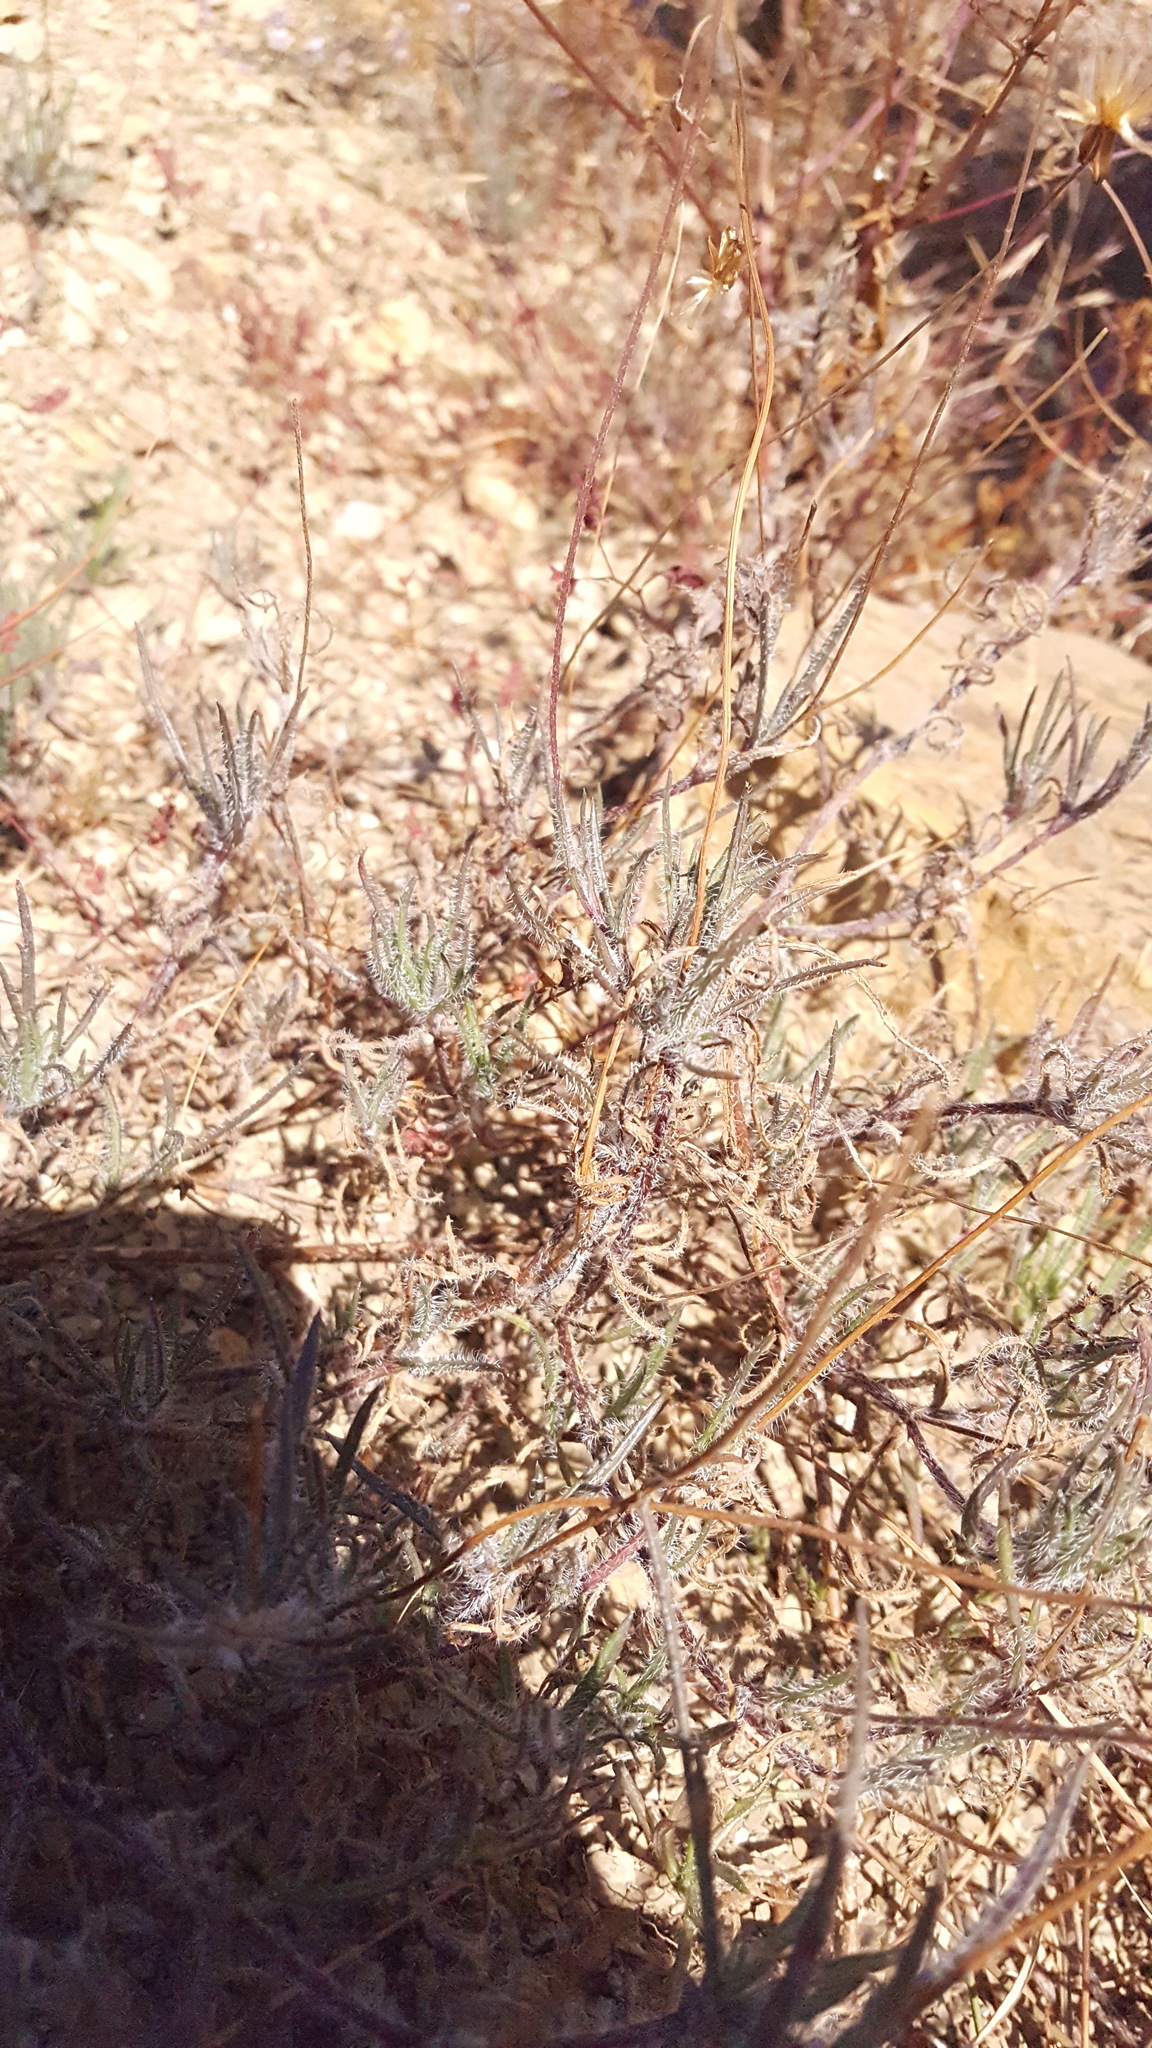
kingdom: Plantae
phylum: Tracheophyta
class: Magnoliopsida
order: Asterales
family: Asteraceae
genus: Tridax
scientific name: Tridax coronopifolia
